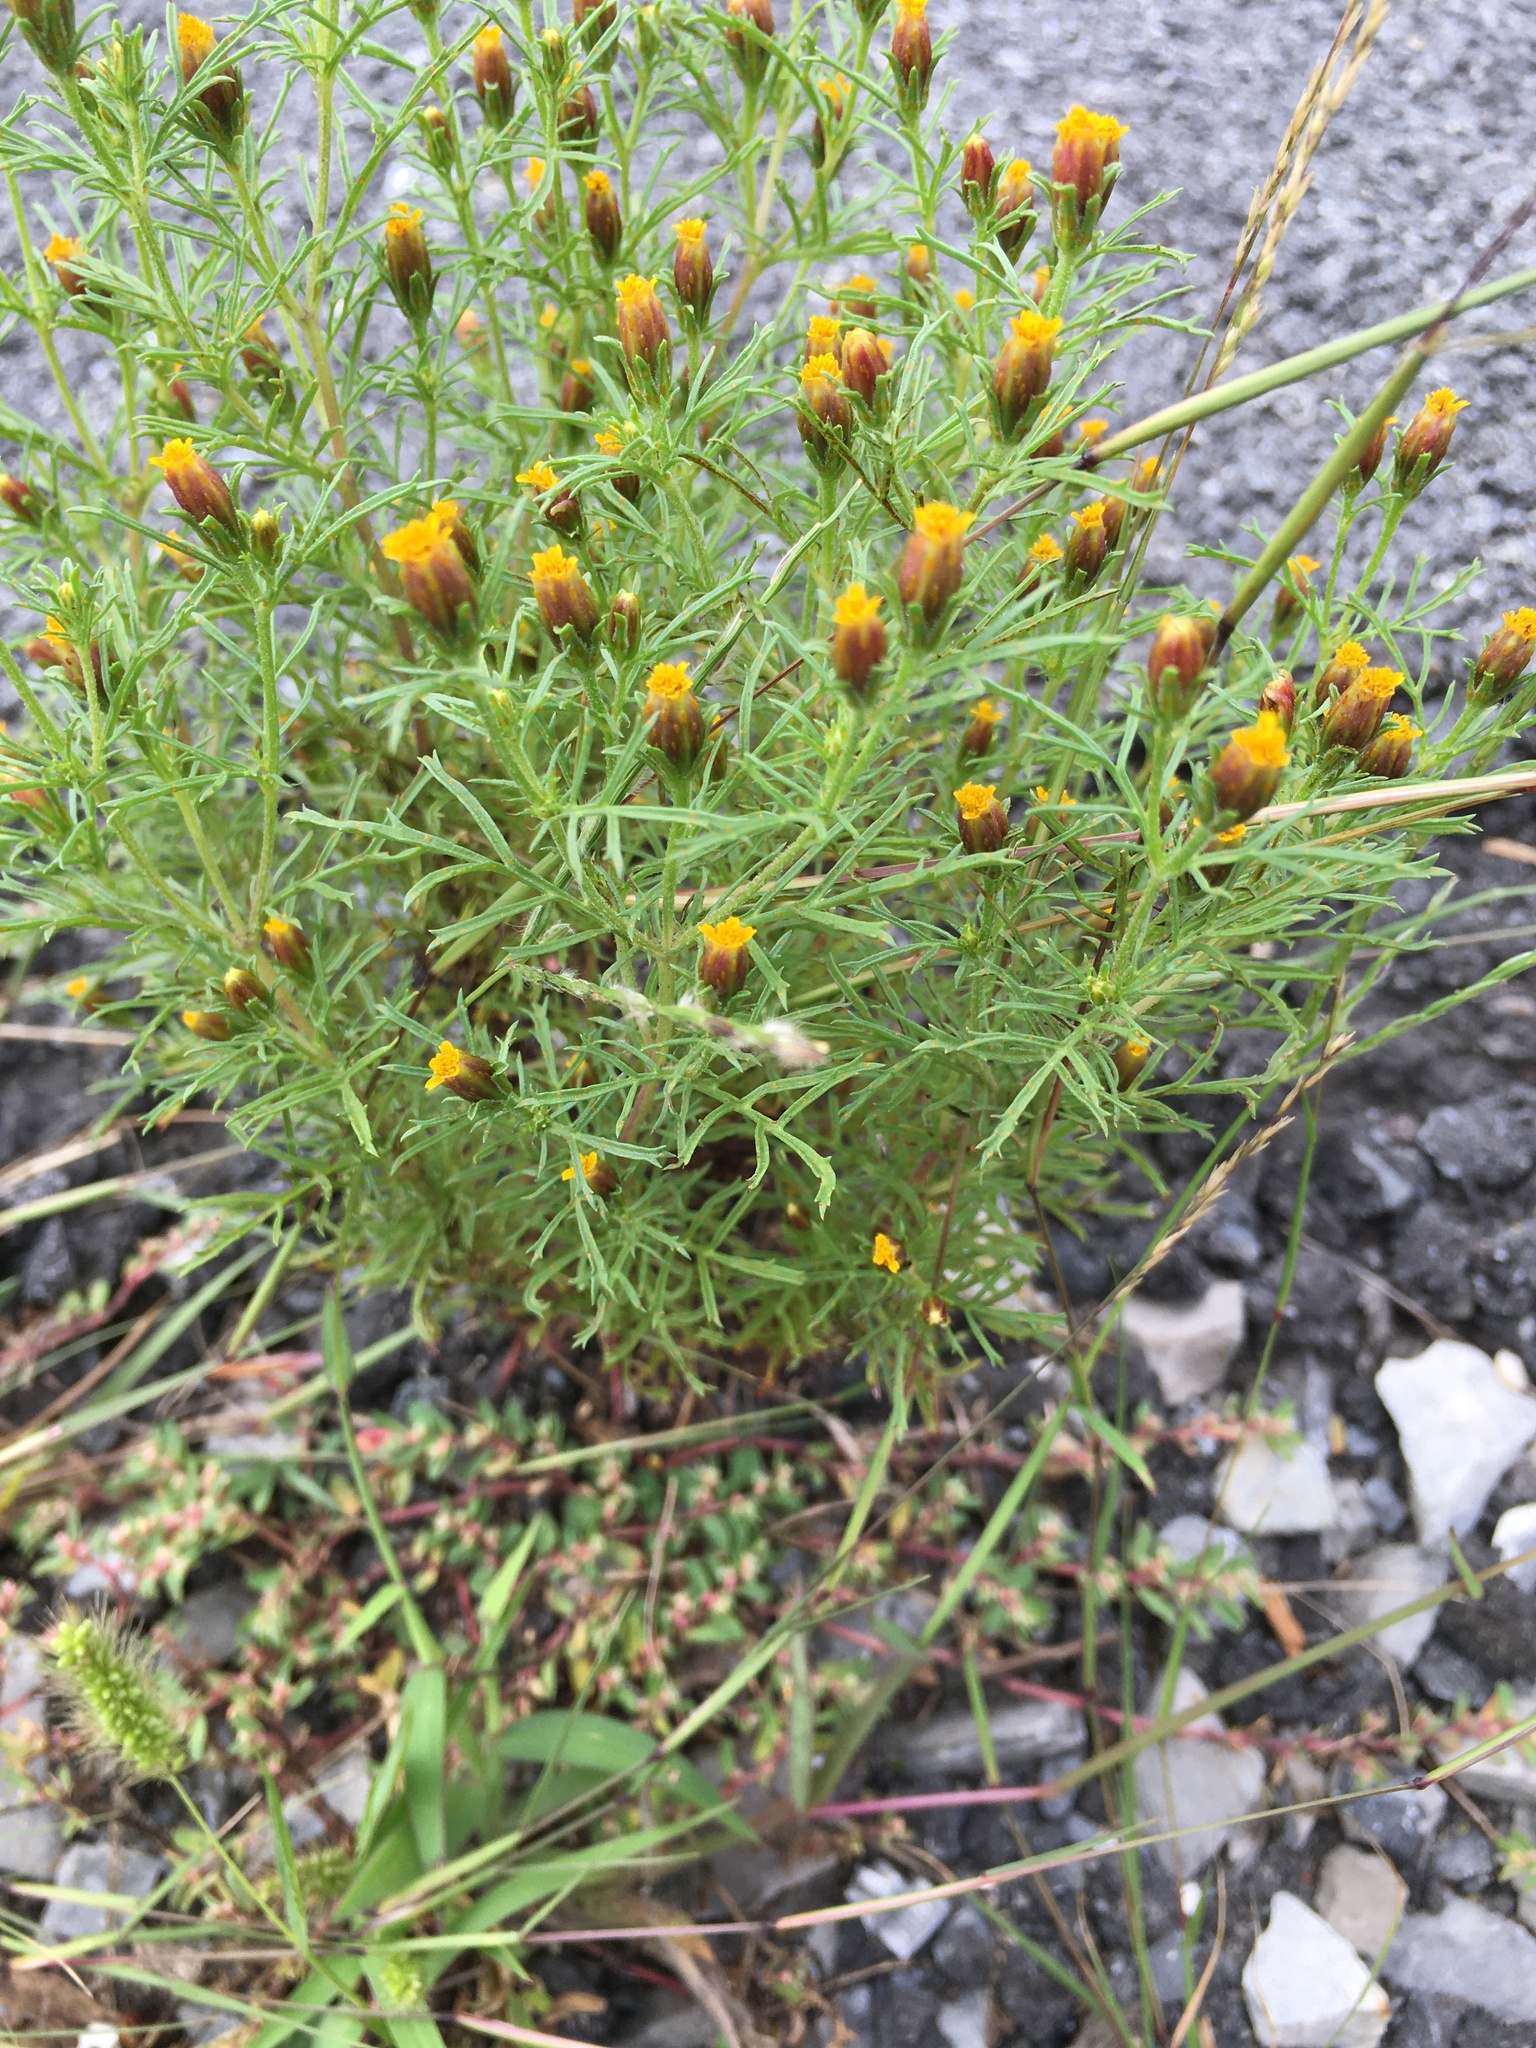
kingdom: Plantae
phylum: Tracheophyta
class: Magnoliopsida
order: Asterales
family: Asteraceae
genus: Dyssodia
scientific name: Dyssodia papposa
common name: Dogweed
